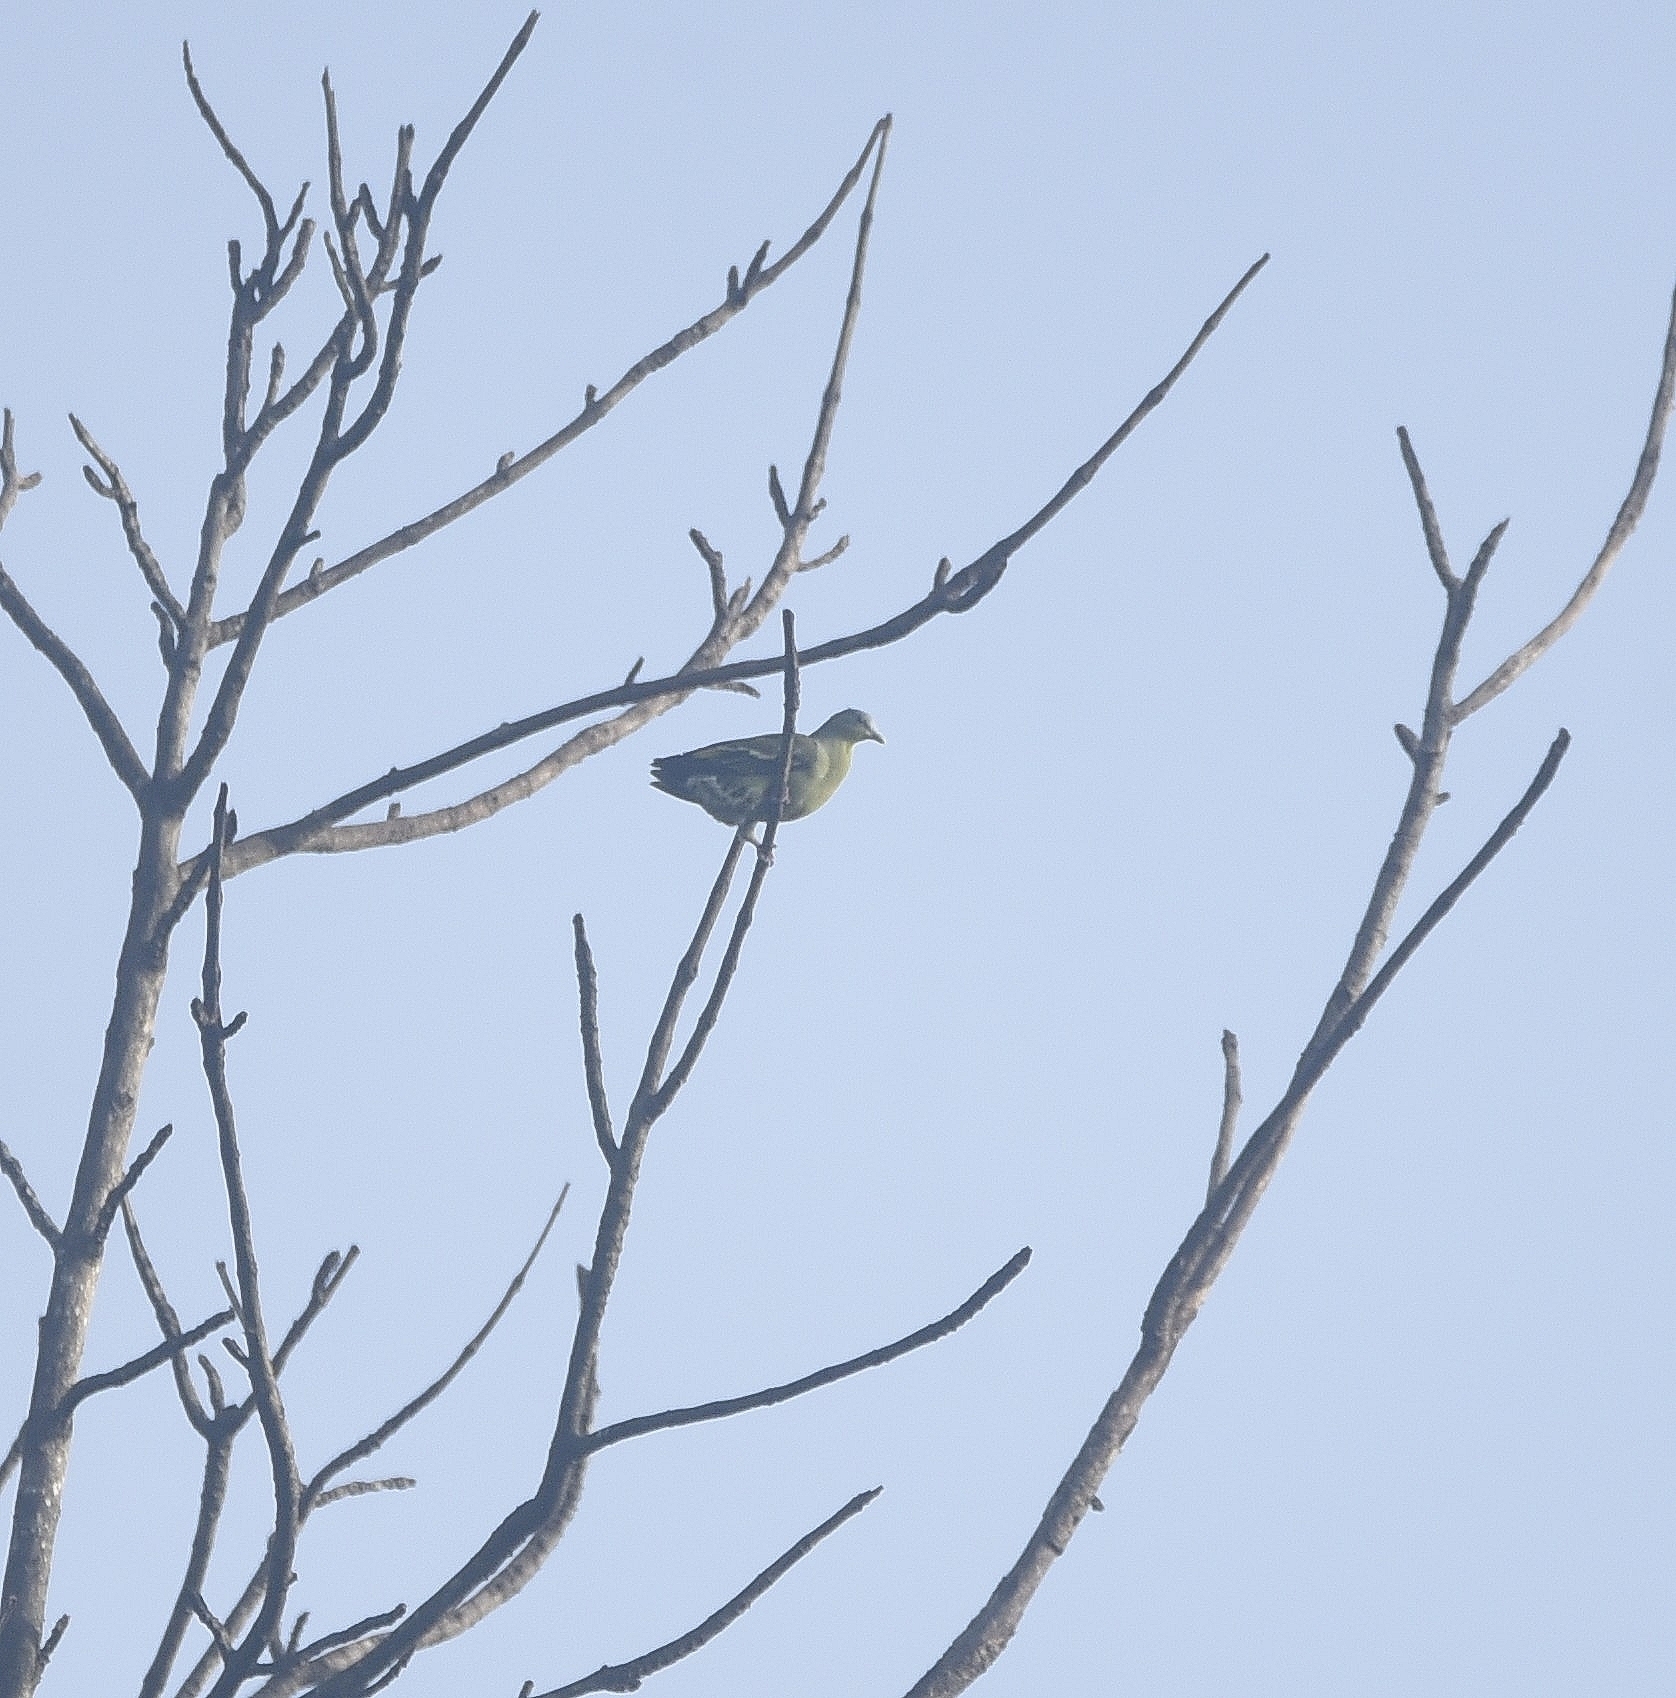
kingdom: Animalia
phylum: Chordata
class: Aves
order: Columbiformes
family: Columbidae
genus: Treron
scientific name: Treron affinis
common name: Grey-fronted green pigeon
